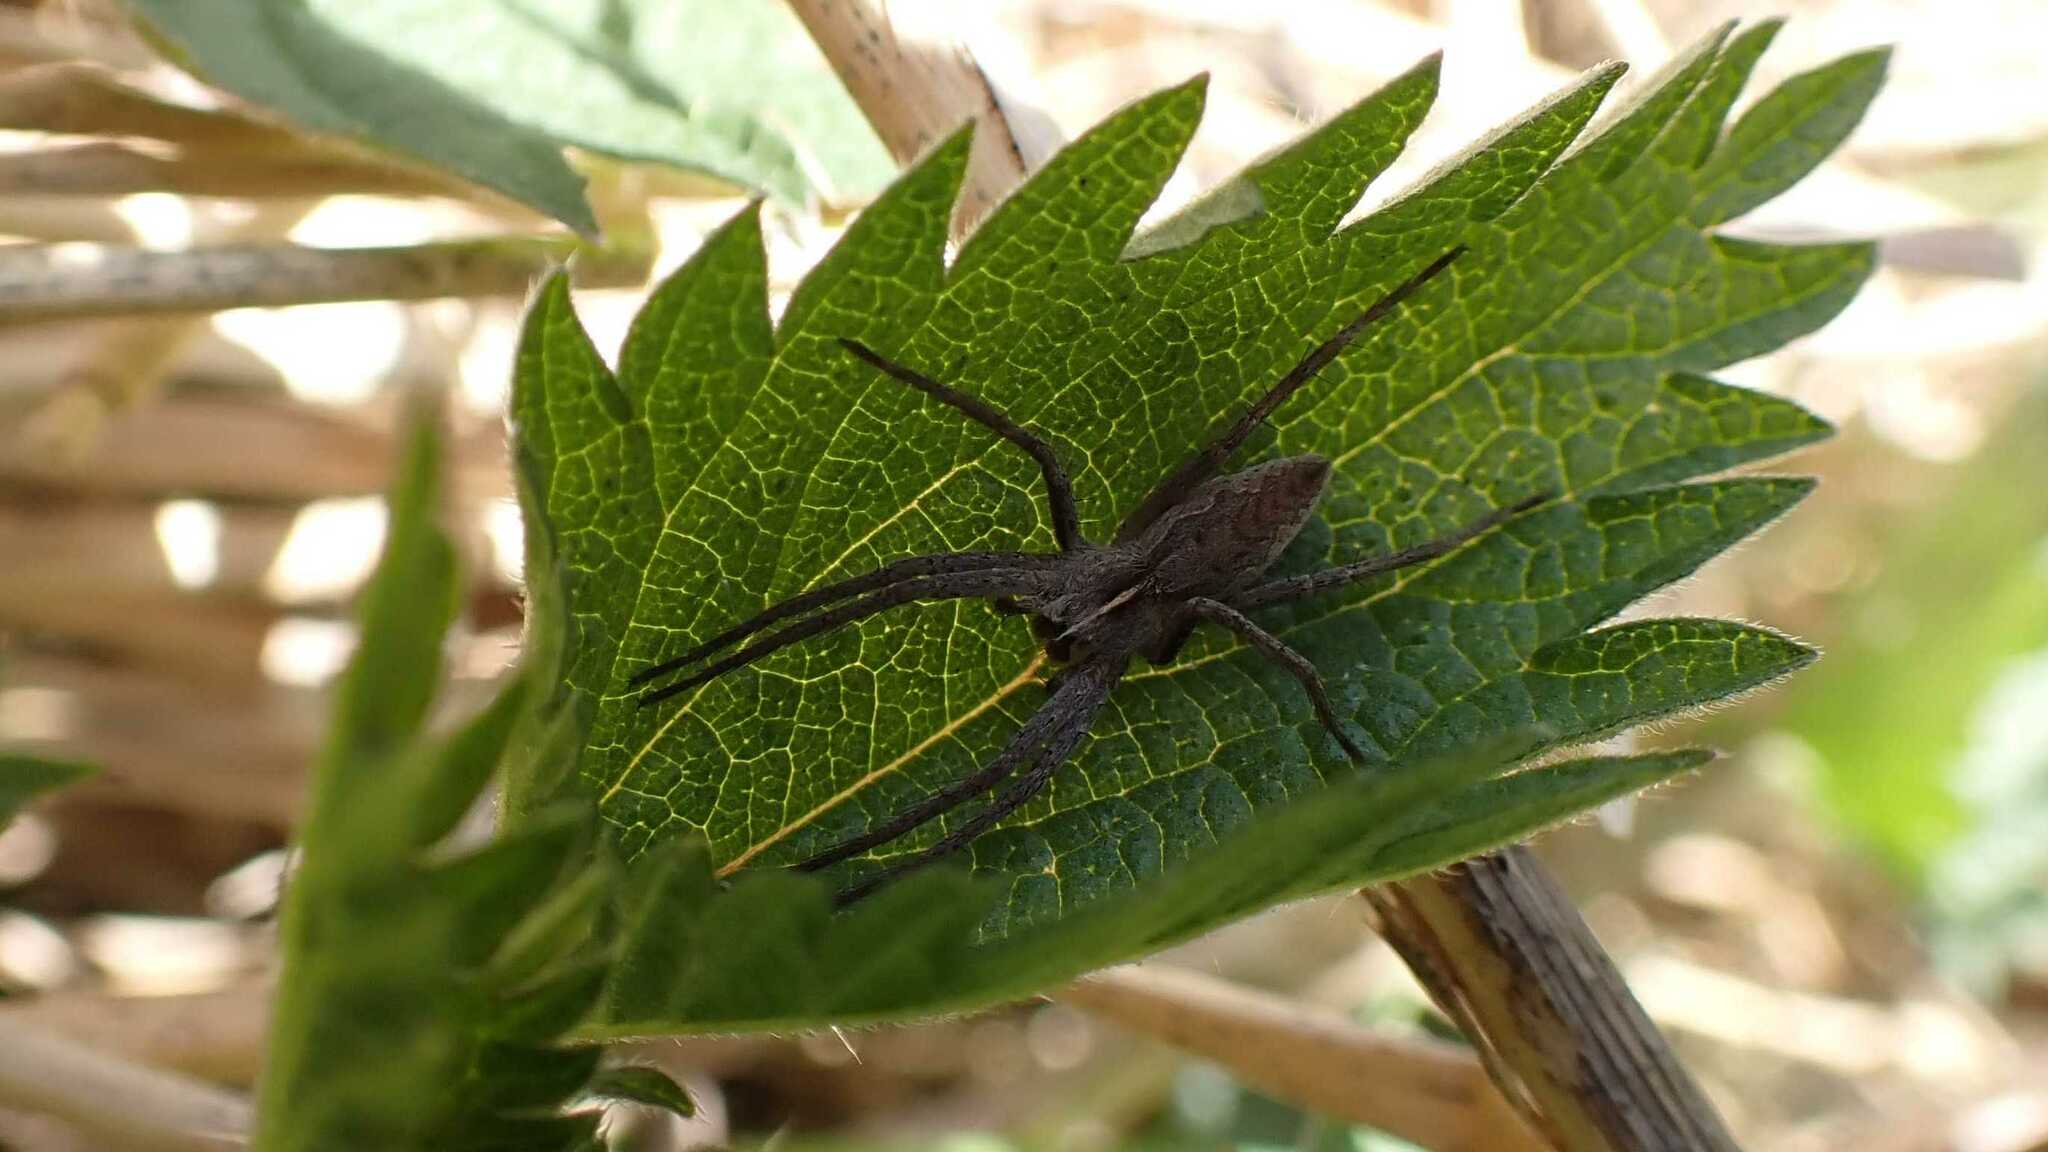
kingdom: Animalia
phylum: Arthropoda
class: Arachnida
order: Araneae
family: Pisauridae
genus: Pisaura
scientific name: Pisaura mirabilis
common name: Tent spider
